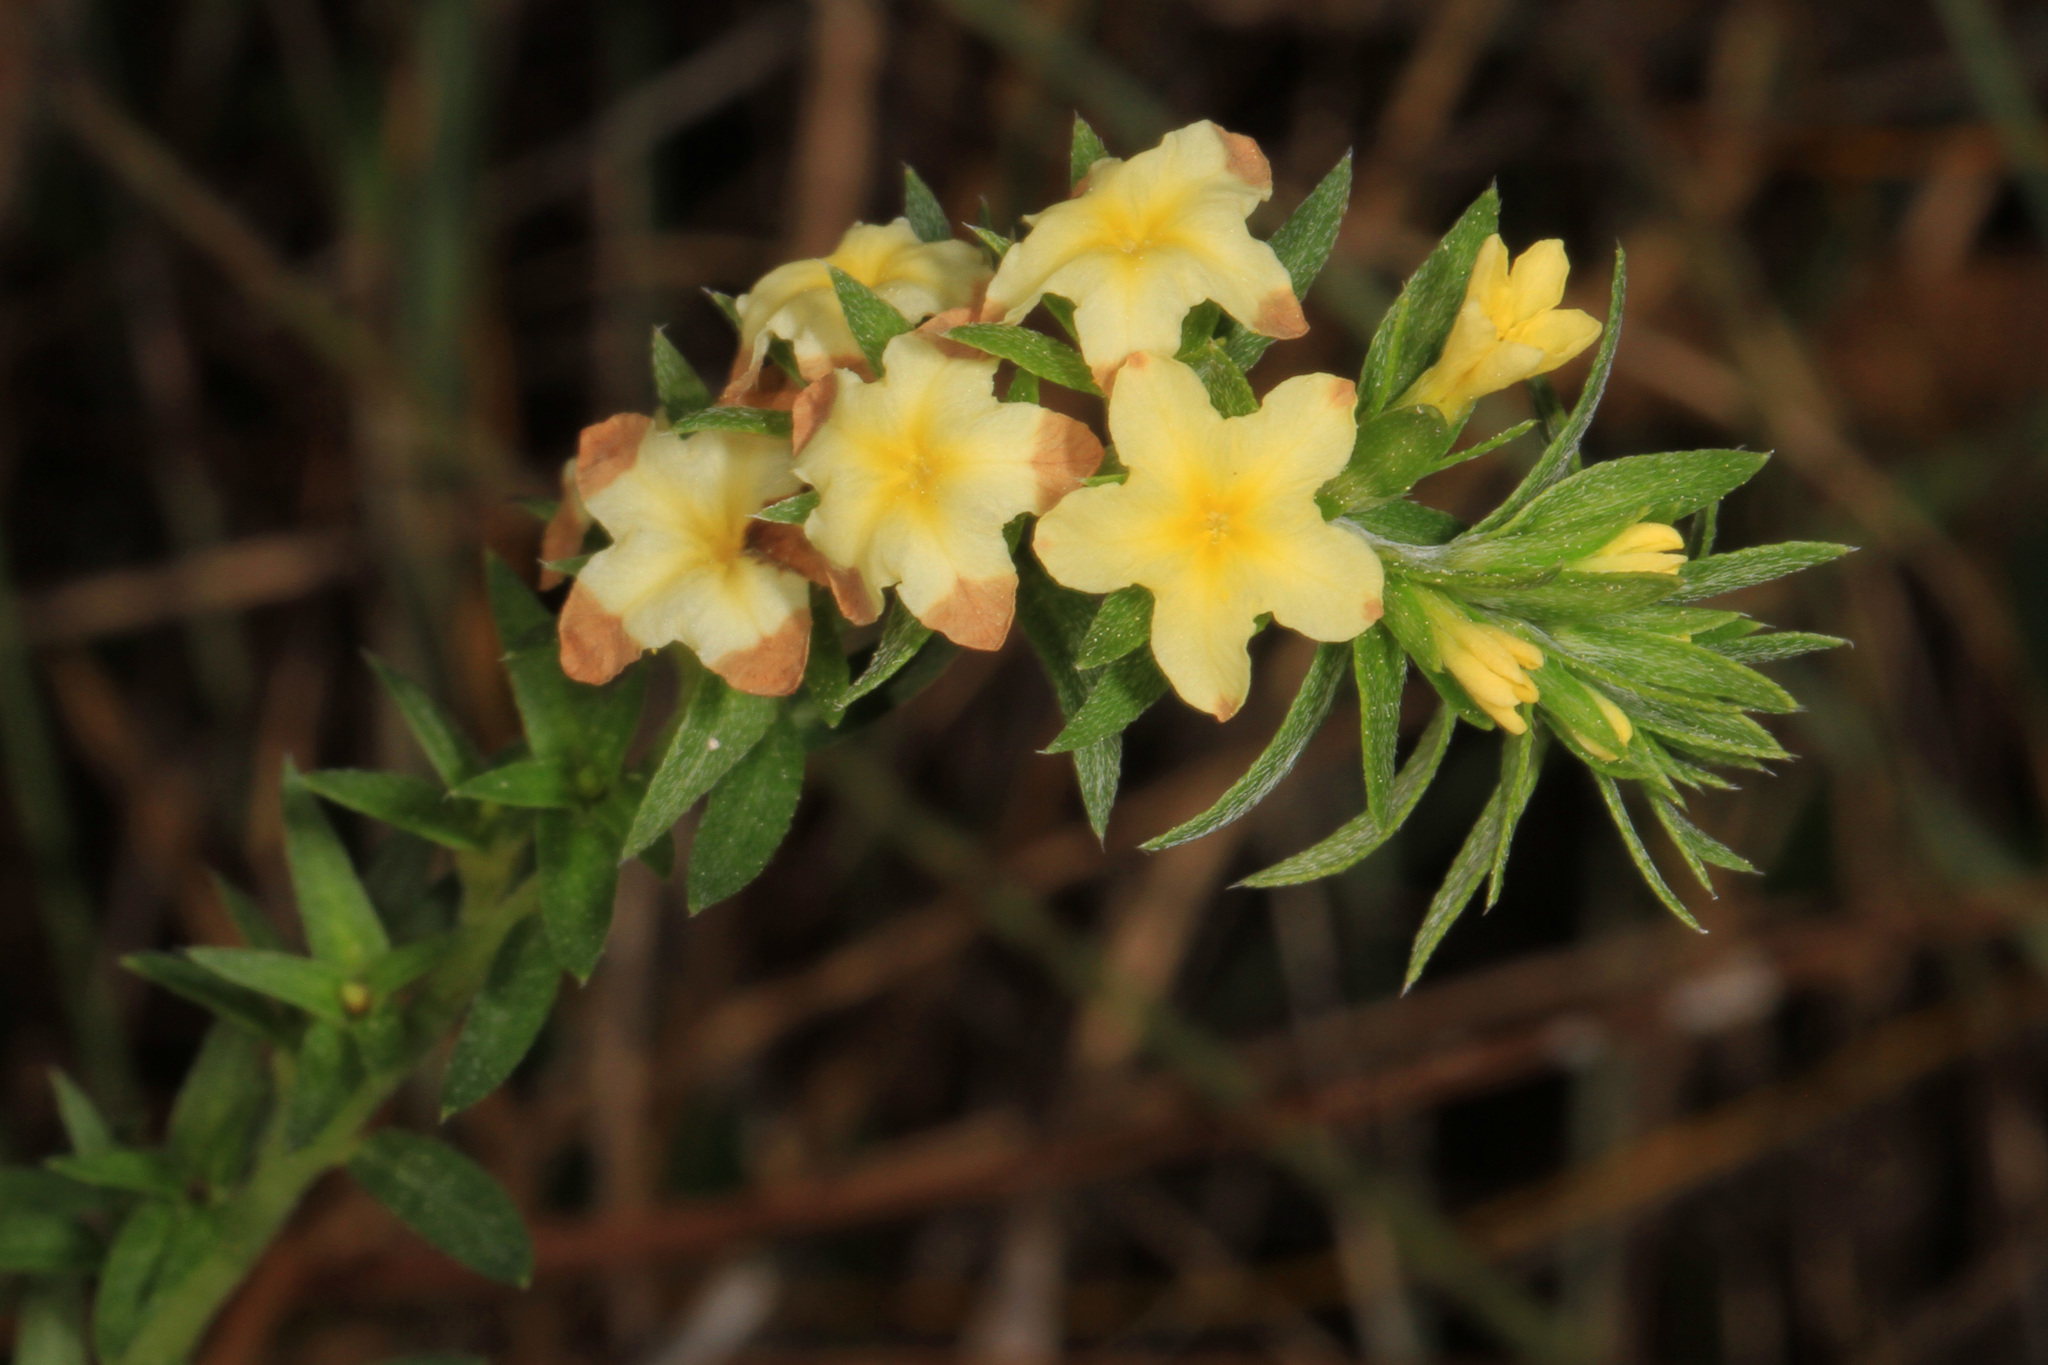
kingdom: Plantae
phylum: Tracheophyta
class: Magnoliopsida
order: Boraginales
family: Heliotropiaceae
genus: Euploca
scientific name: Euploca polyphylla
